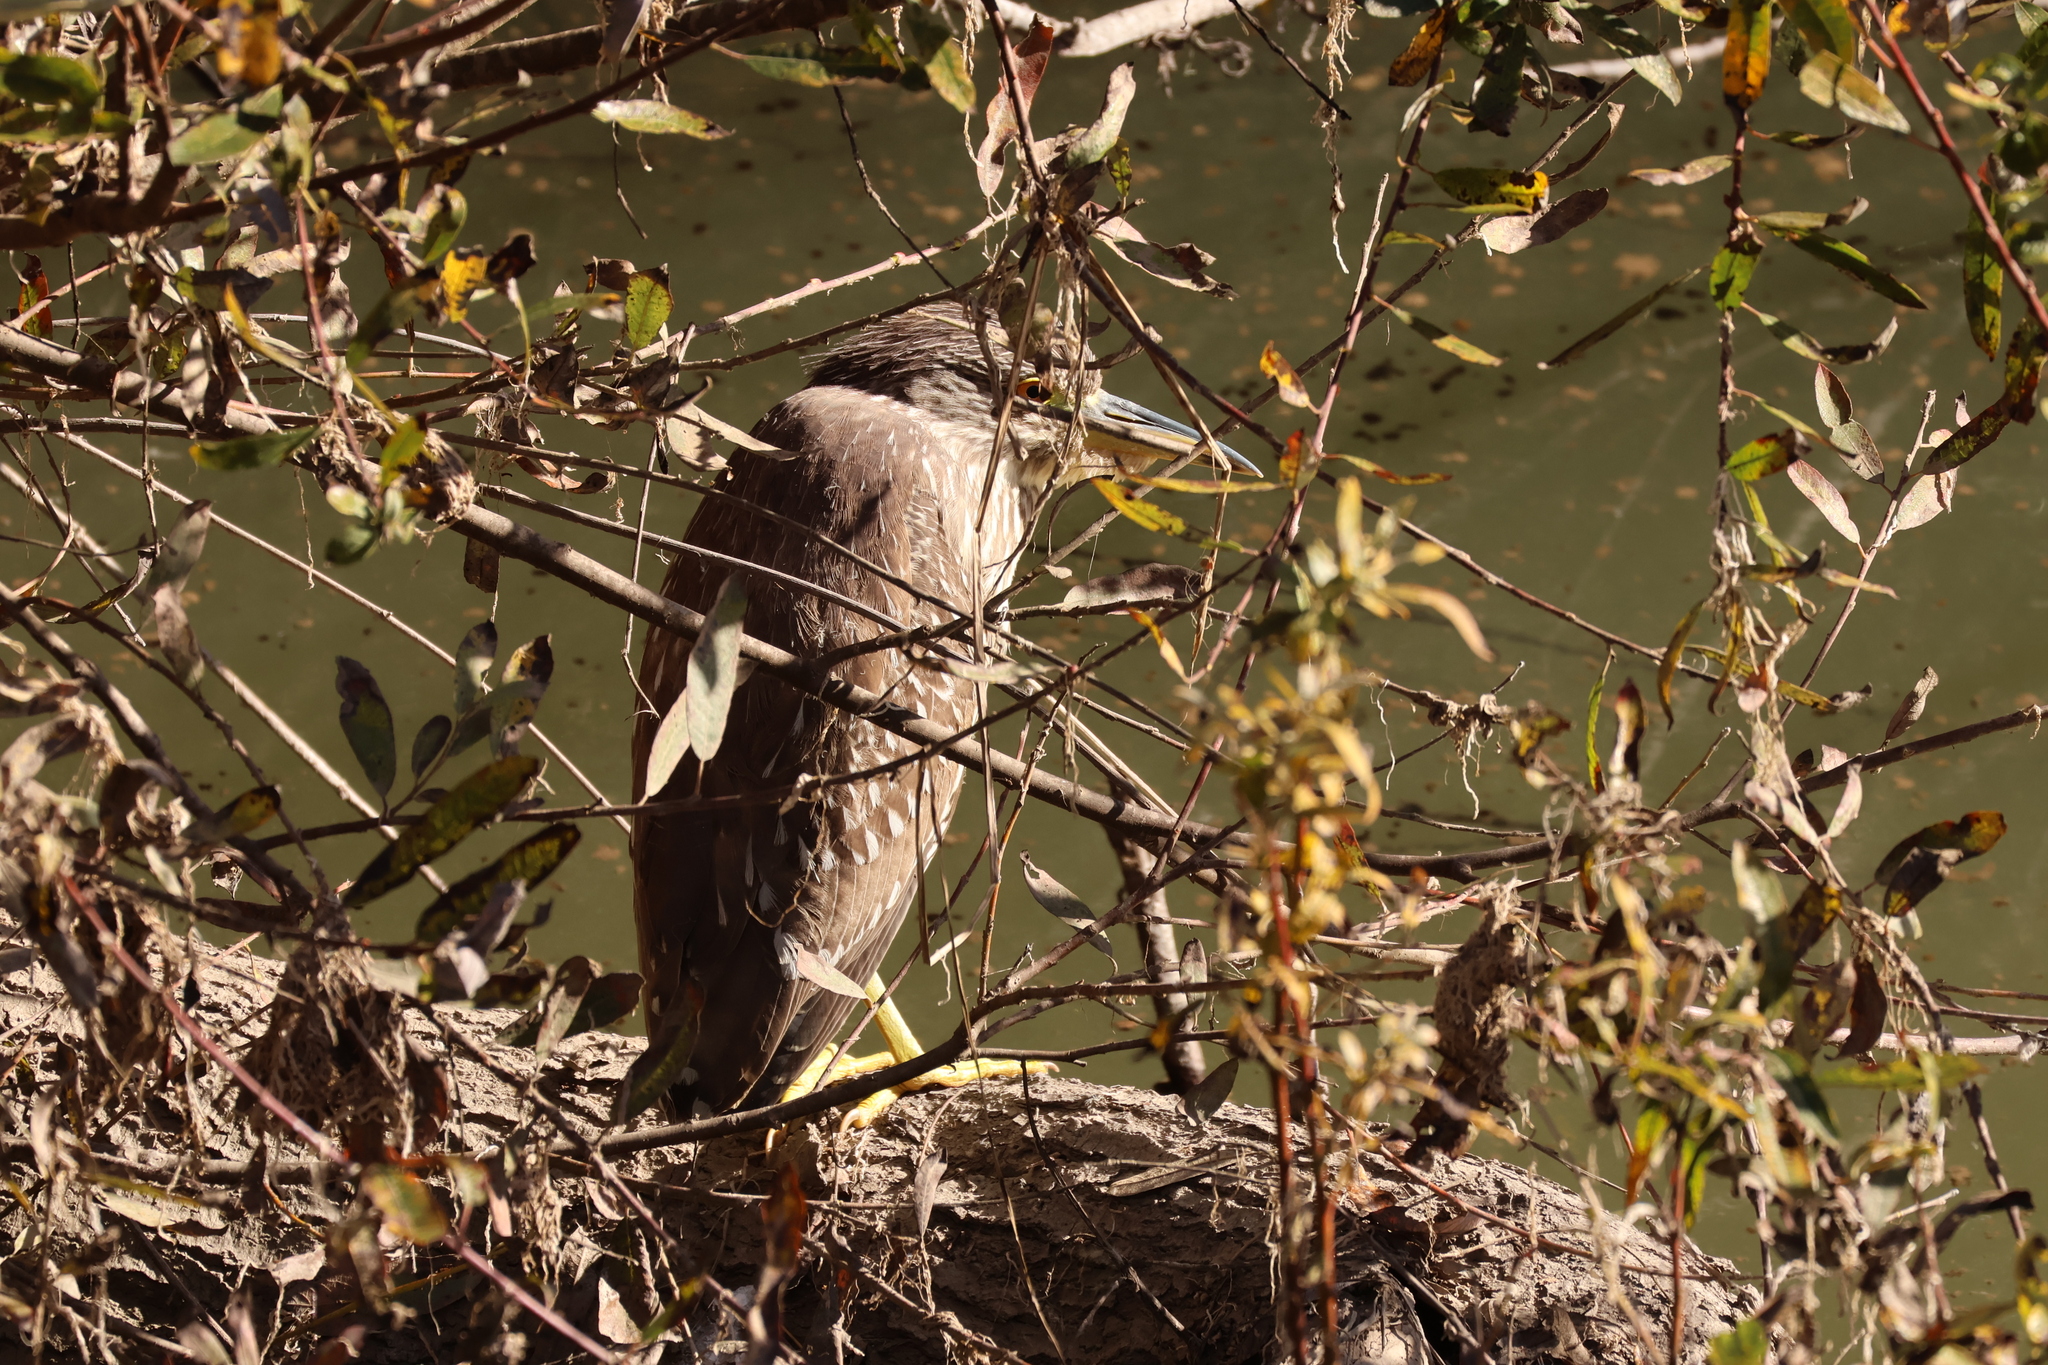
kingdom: Animalia
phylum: Chordata
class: Aves
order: Pelecaniformes
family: Ardeidae
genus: Nycticorax
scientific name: Nycticorax nycticorax
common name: Black-crowned night heron
